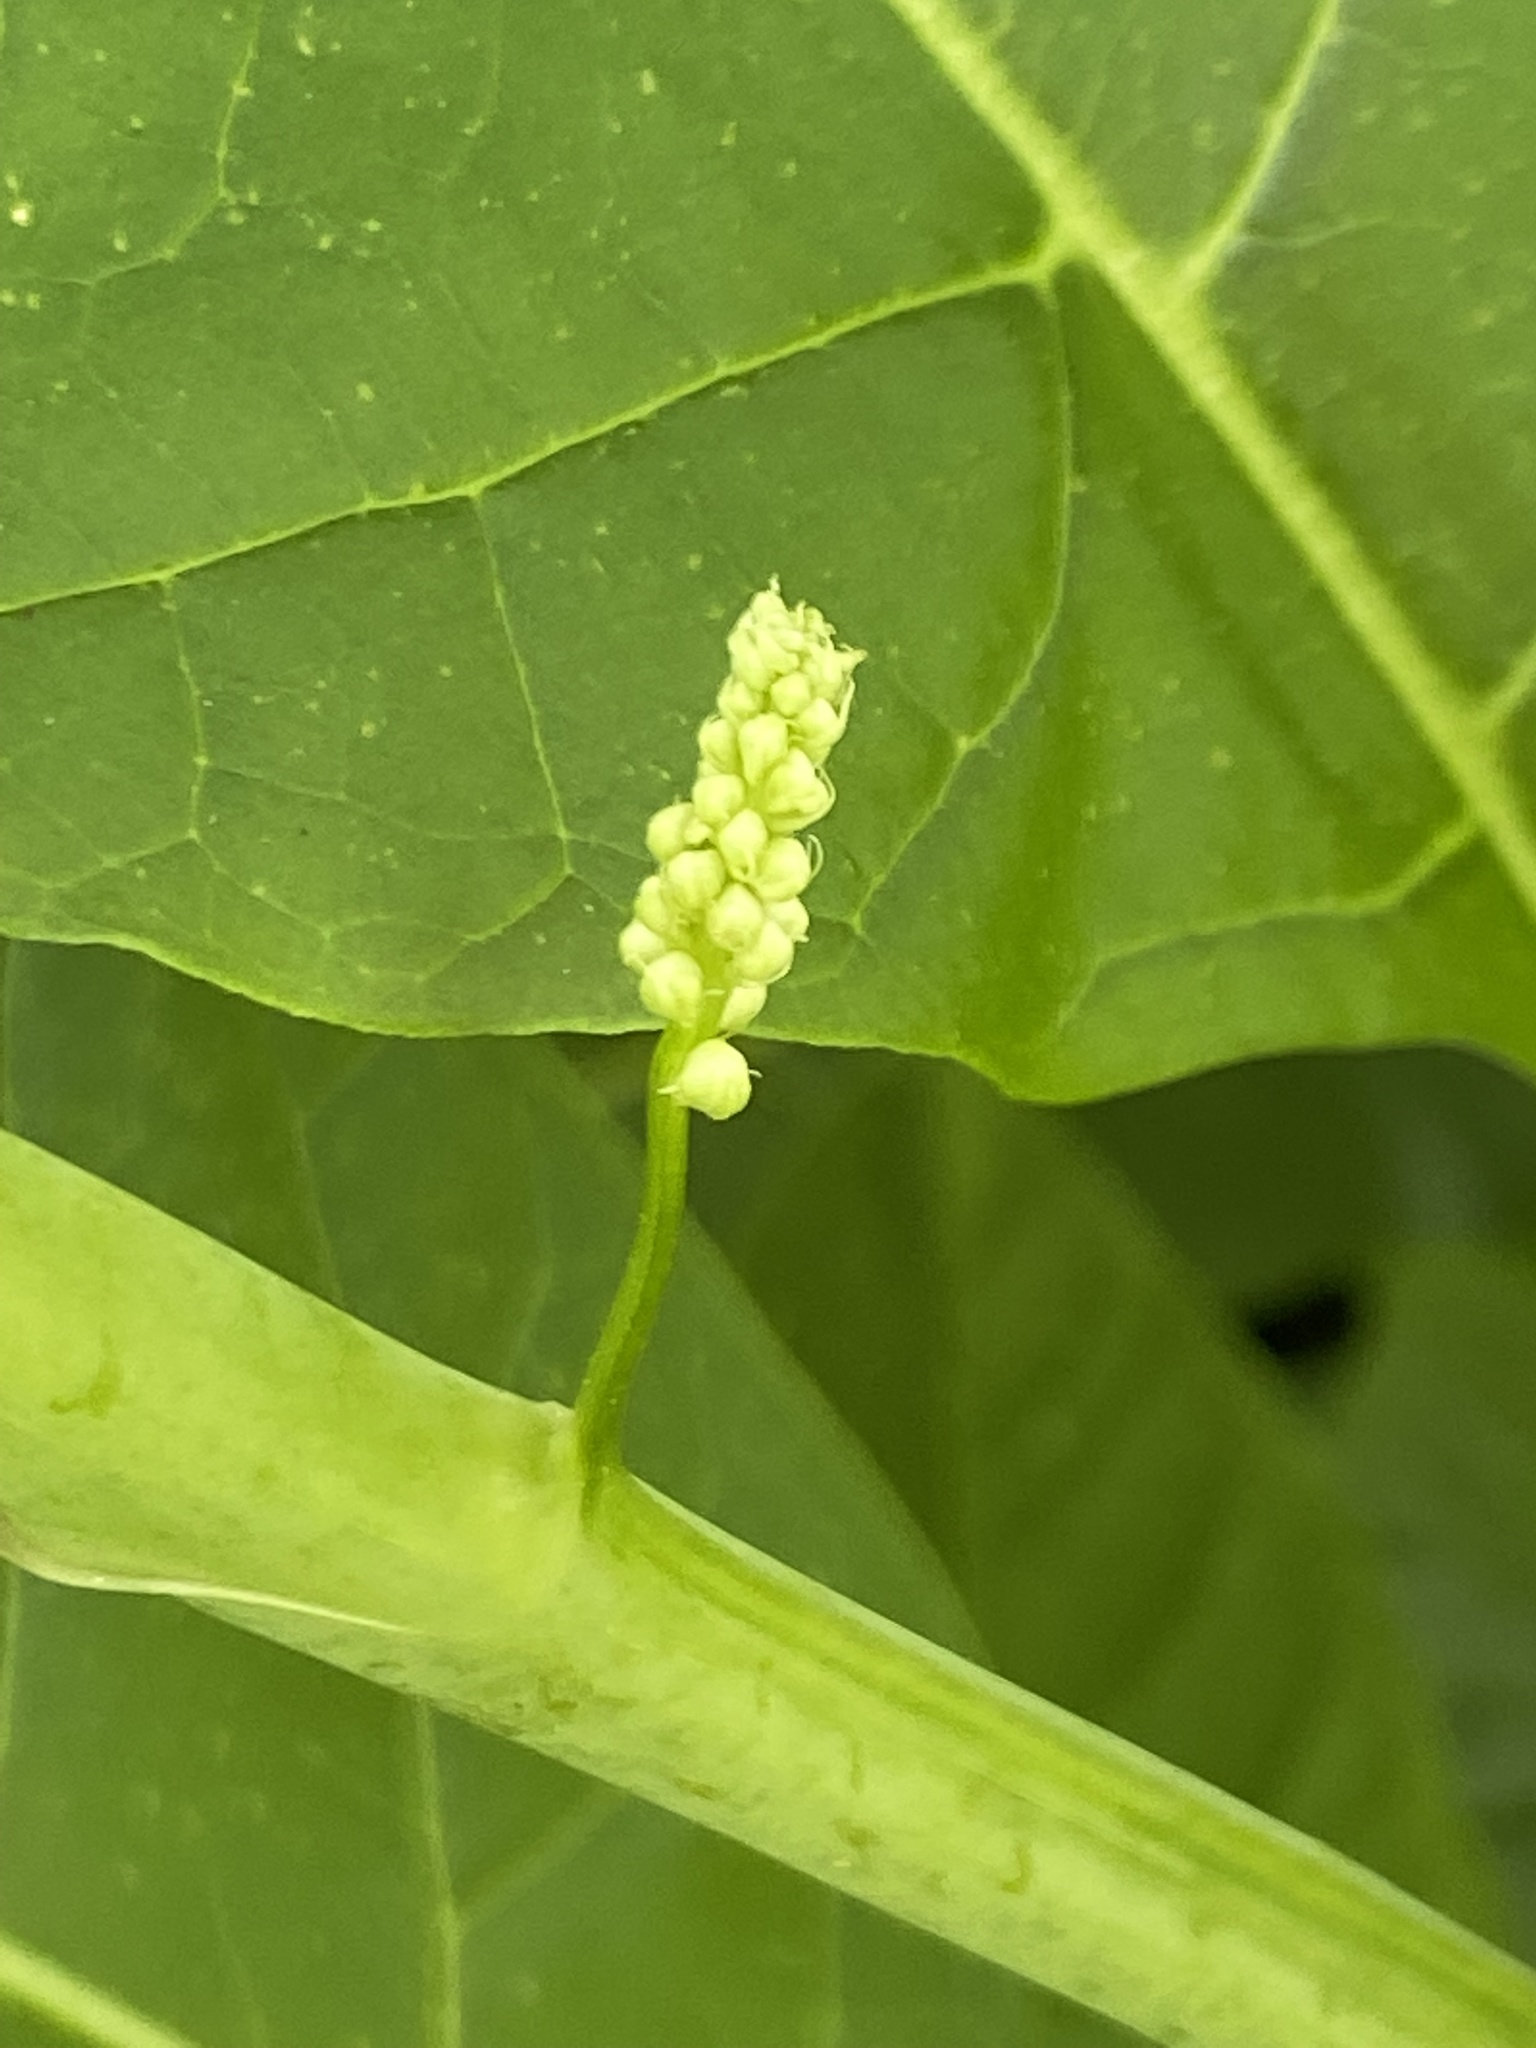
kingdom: Plantae
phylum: Tracheophyta
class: Magnoliopsida
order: Caryophyllales
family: Phytolaccaceae
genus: Phytolacca
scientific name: Phytolacca americana
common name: American pokeweed
